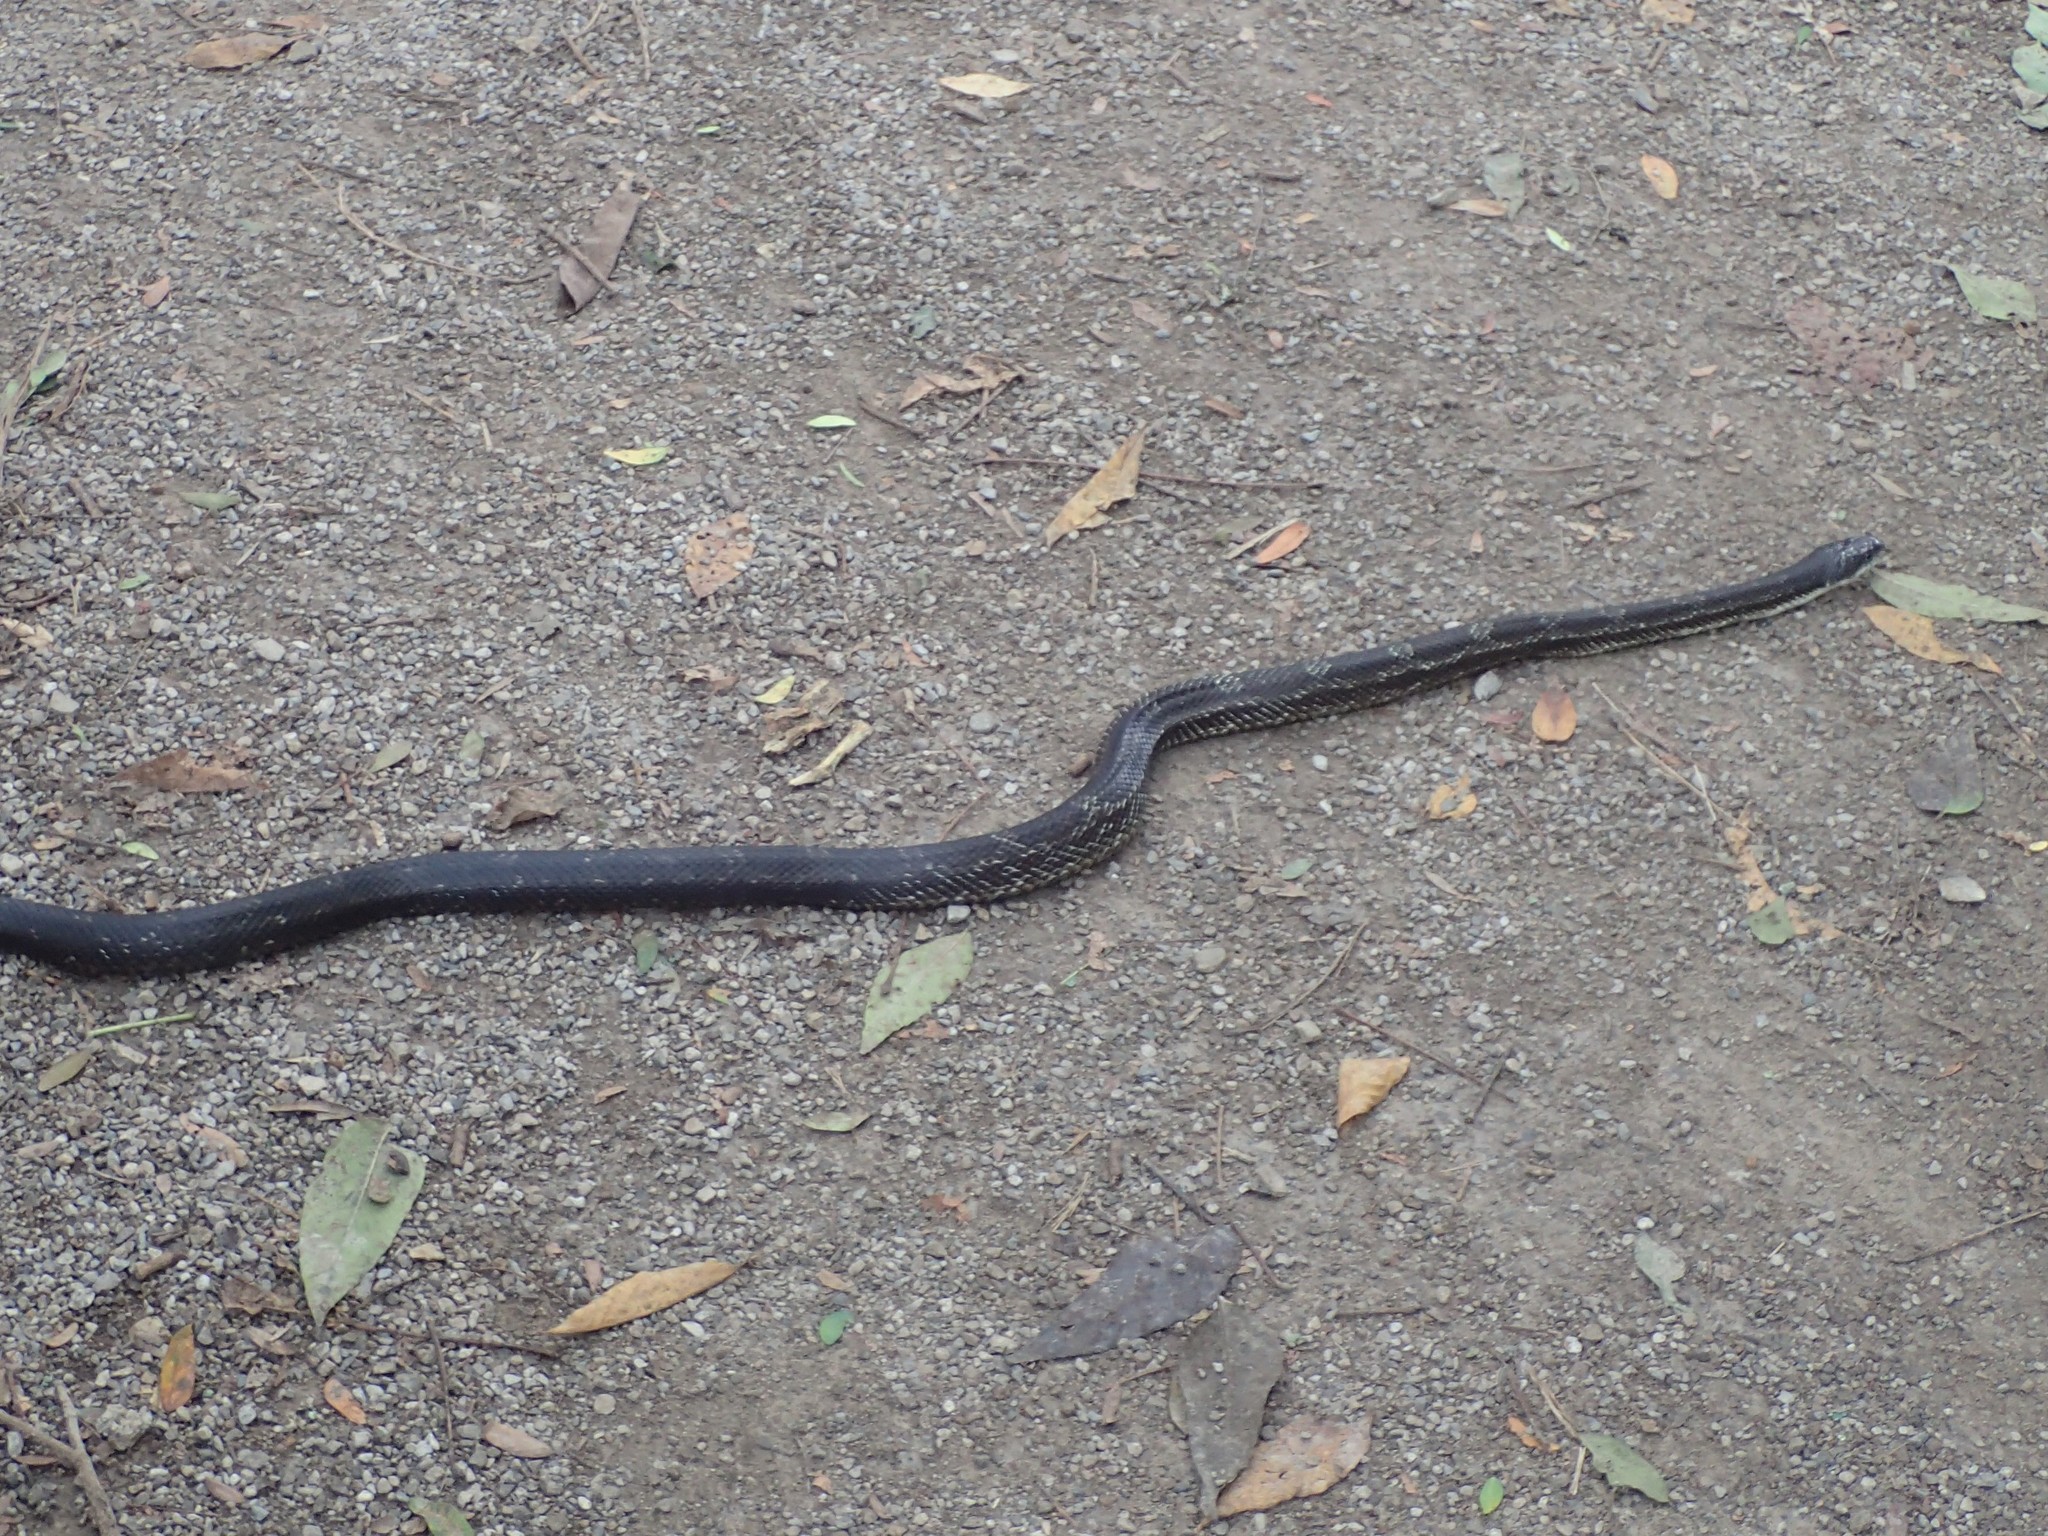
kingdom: Animalia
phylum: Chordata
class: Squamata
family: Colubridae
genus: Pantherophis
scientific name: Pantherophis spiloides
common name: Gray rat snake
